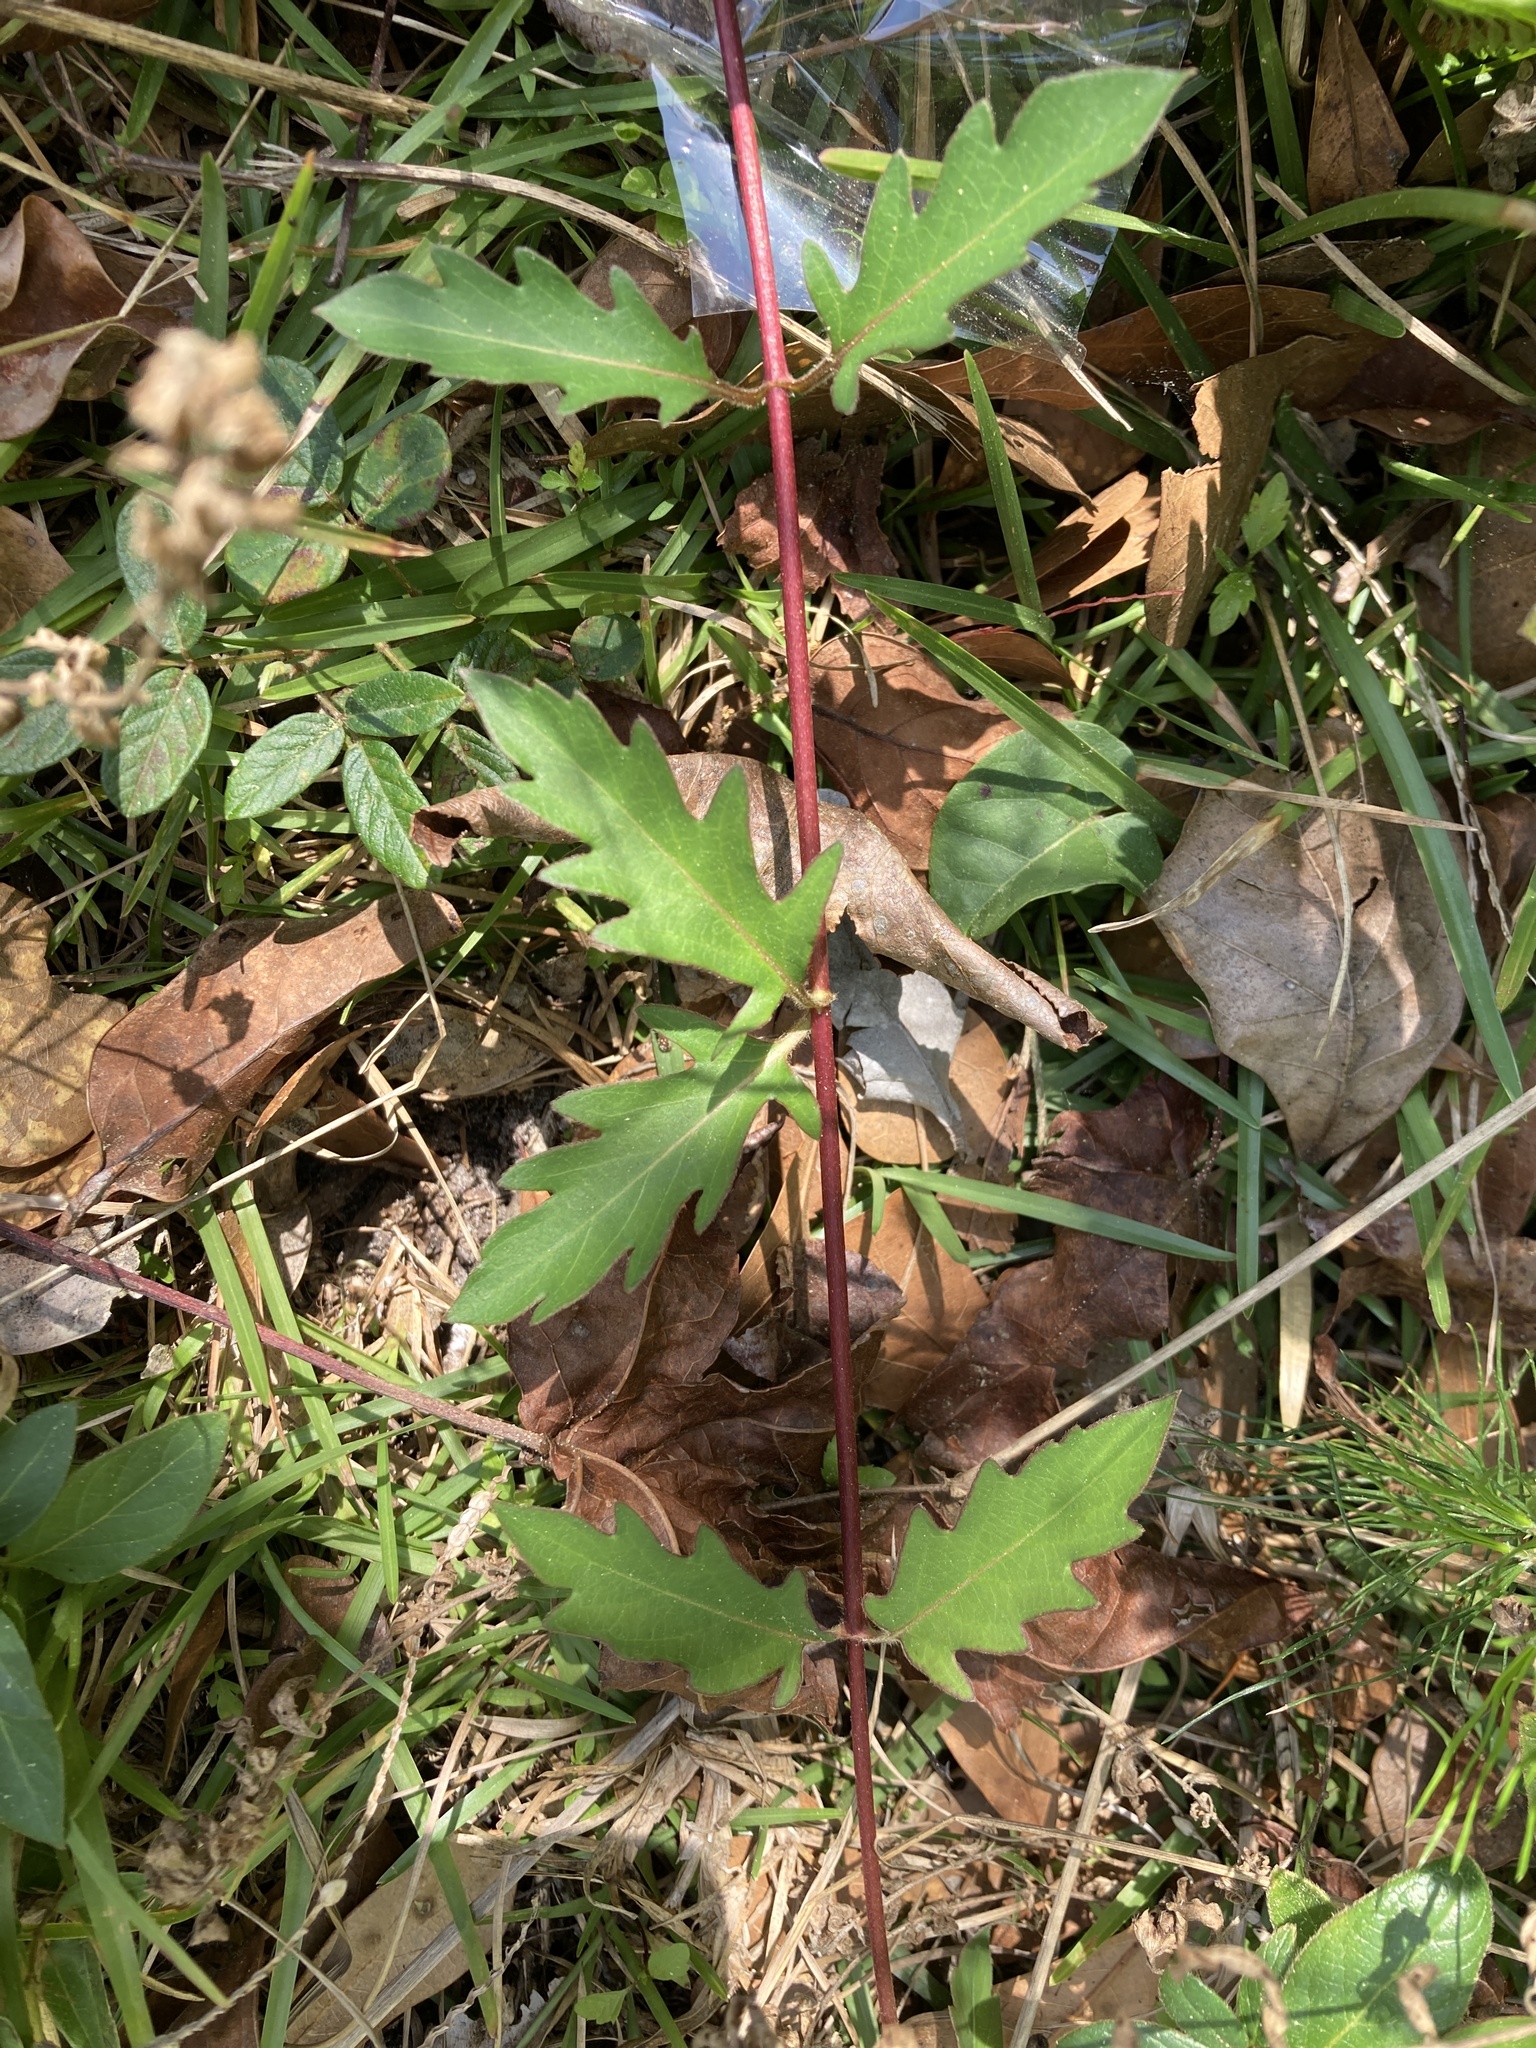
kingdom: Plantae
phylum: Tracheophyta
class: Magnoliopsida
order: Dipsacales
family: Caprifoliaceae
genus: Lonicera
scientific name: Lonicera japonica
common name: Japanese honeysuckle
